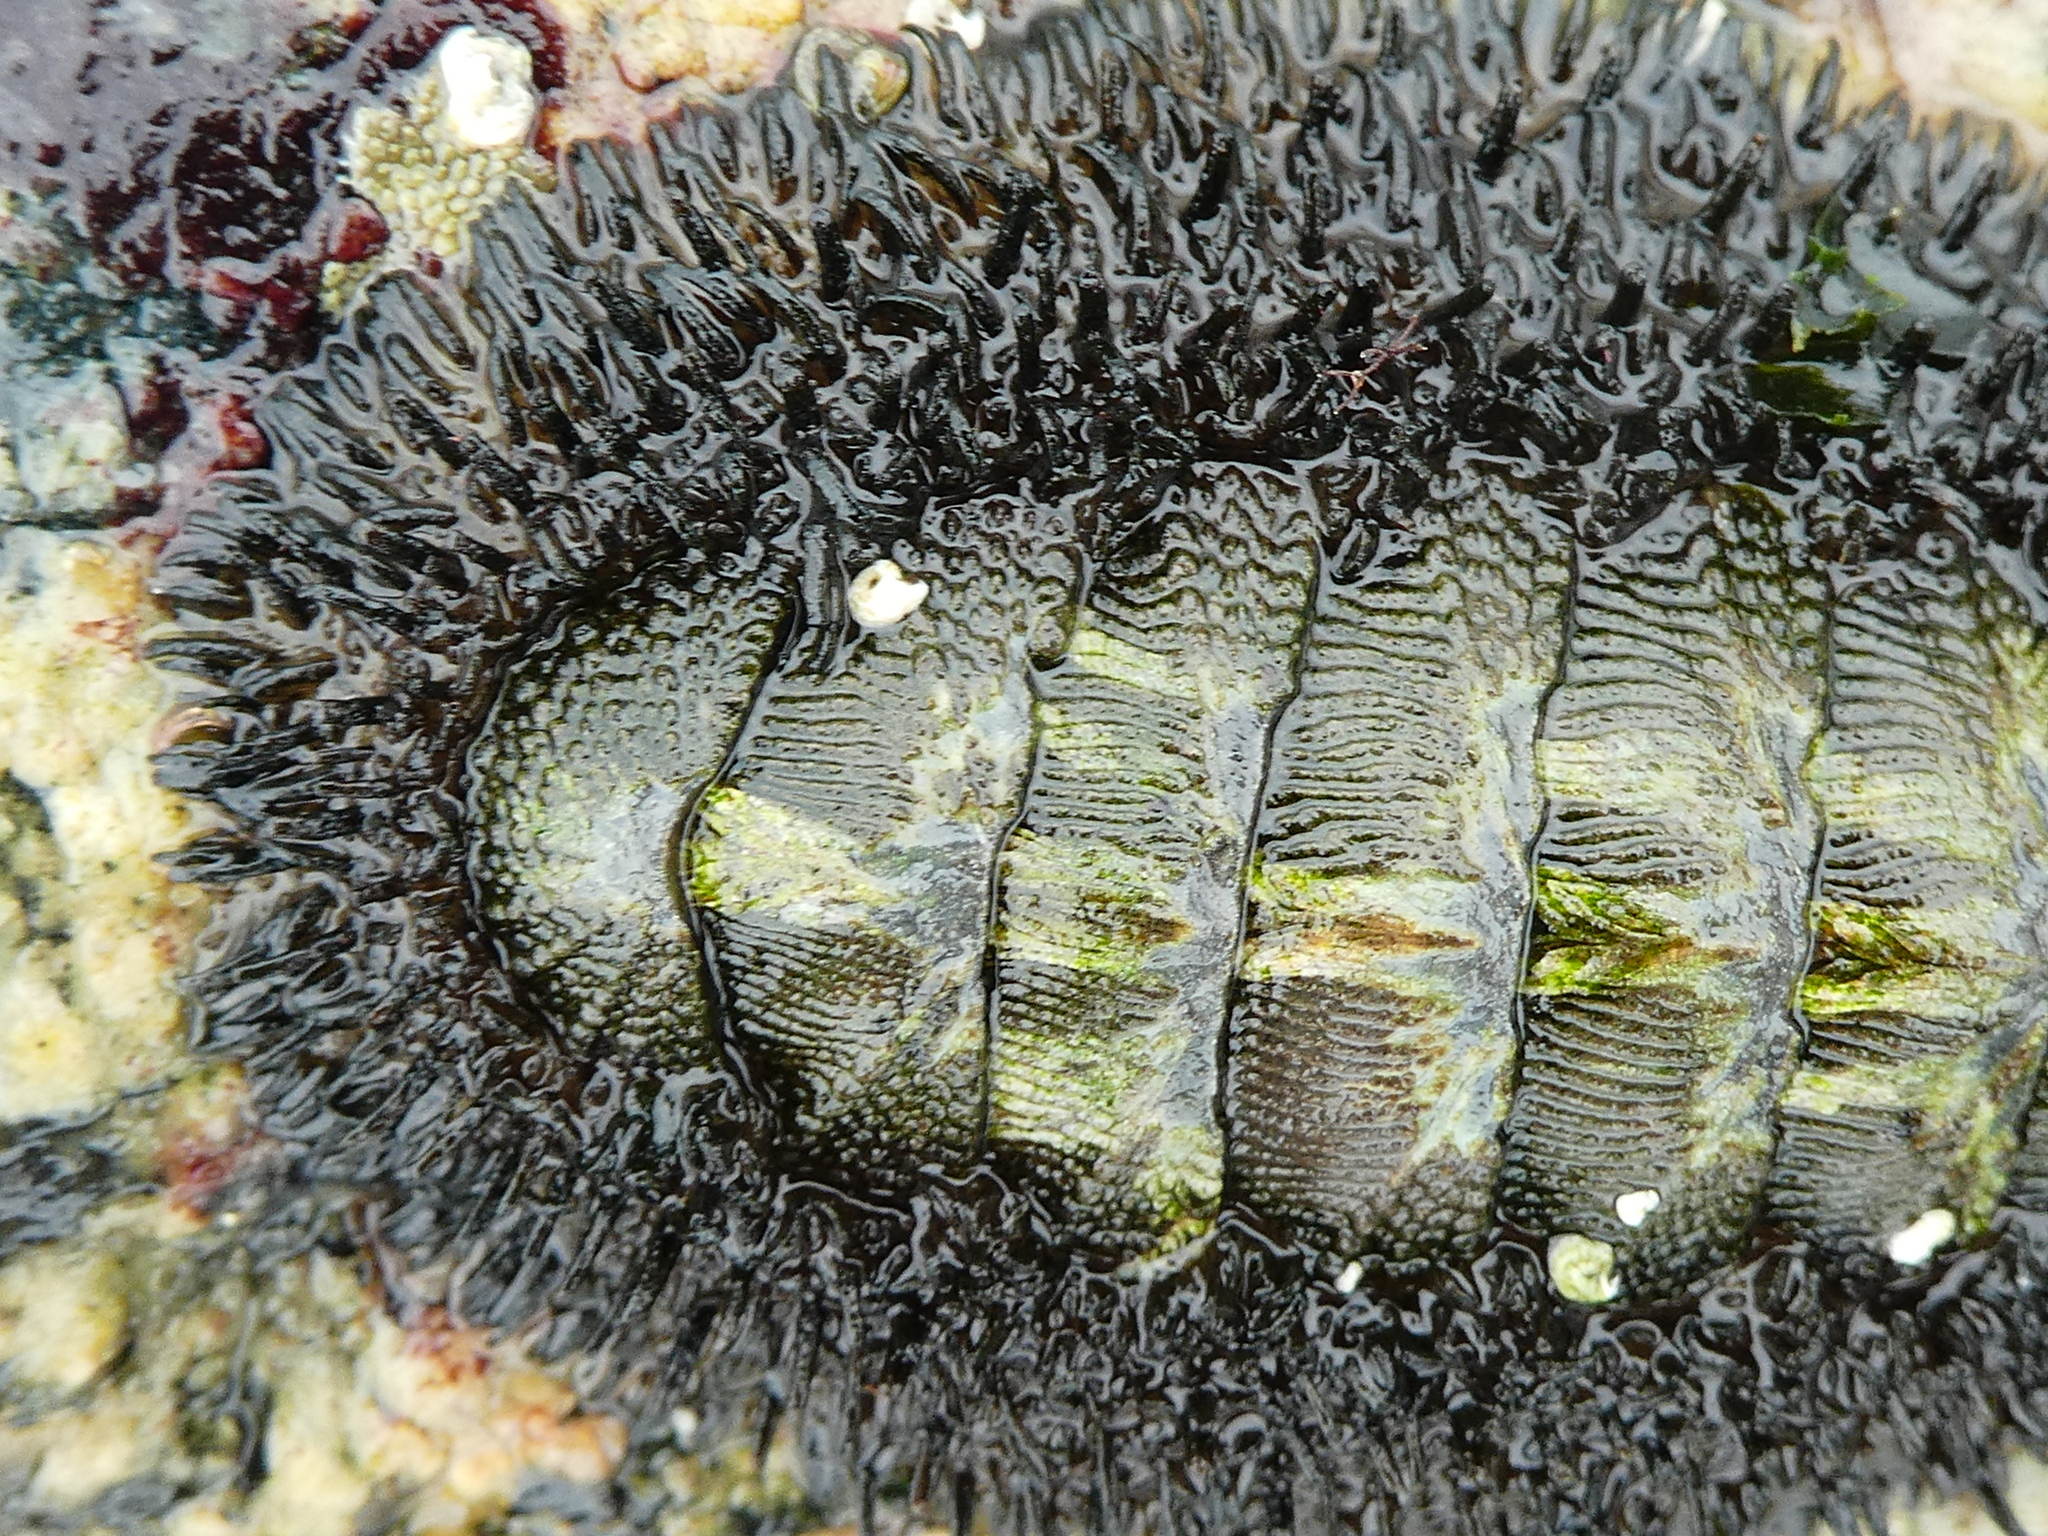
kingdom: Animalia
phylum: Mollusca
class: Polyplacophora
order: Chitonida
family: Mopaliidae
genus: Mopalia
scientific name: Mopalia muscosa
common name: Mossy chiton
